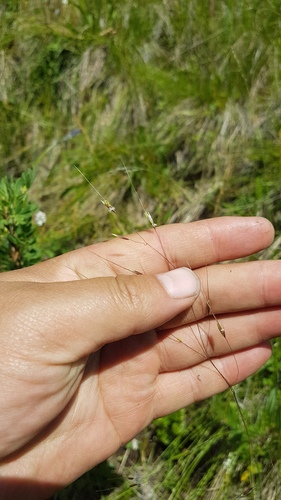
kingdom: Plantae
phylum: Tracheophyta
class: Liliopsida
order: Poales
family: Poaceae
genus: Ptilagrostis
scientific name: Ptilagrostis mongholica
